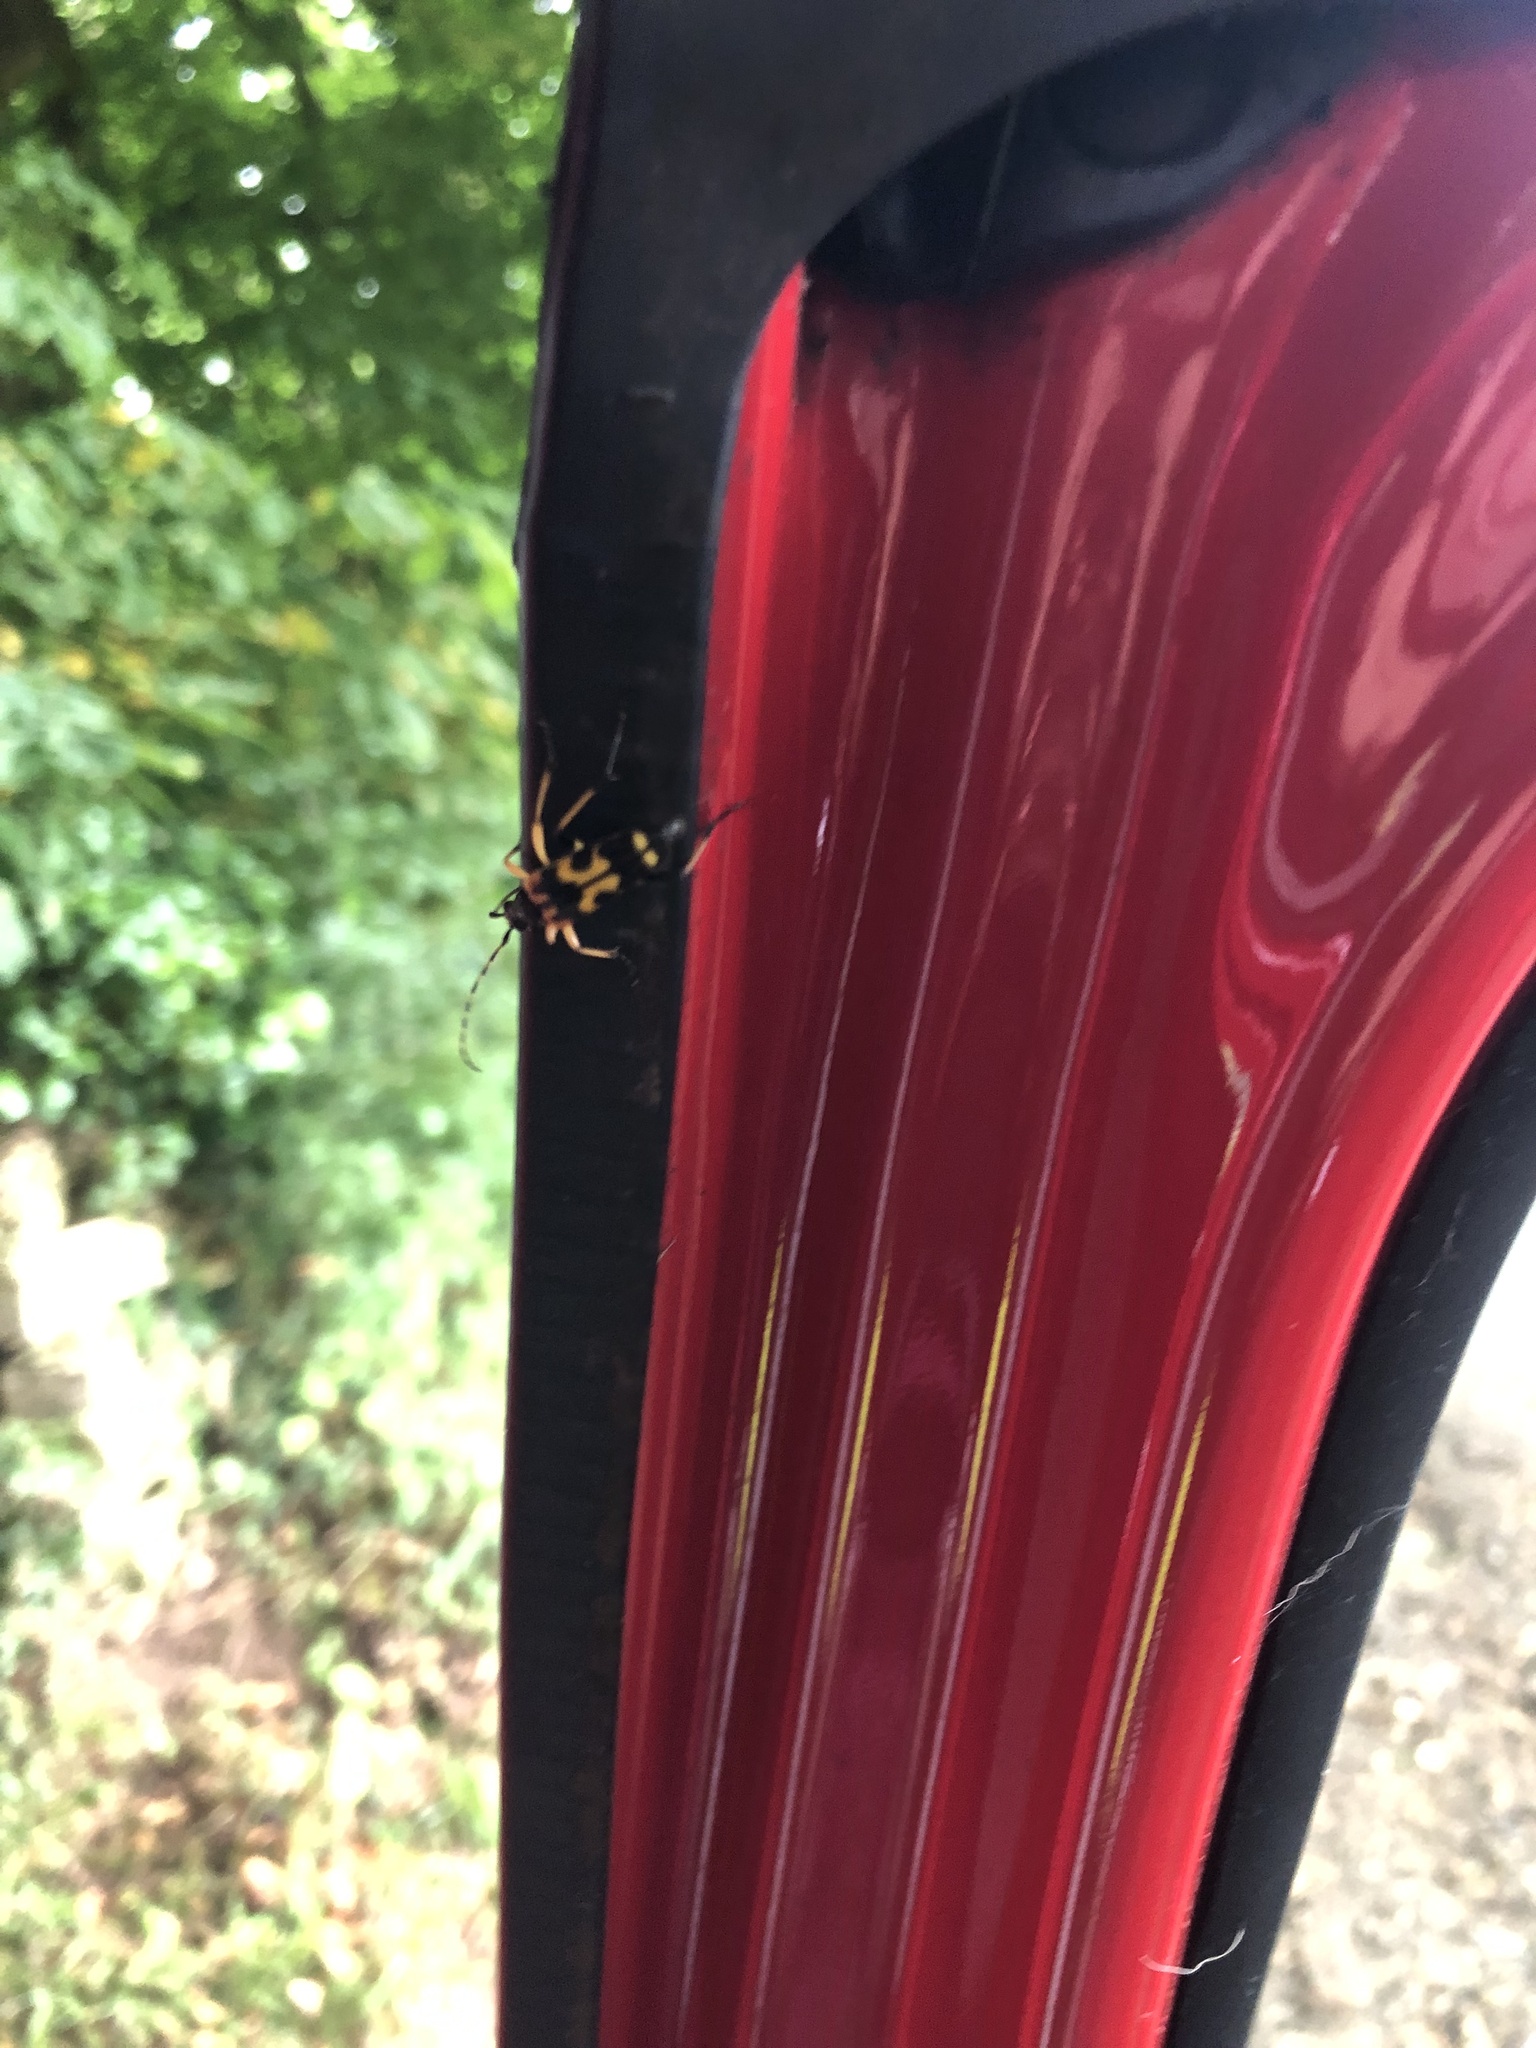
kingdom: Animalia
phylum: Arthropoda
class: Insecta
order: Coleoptera
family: Cerambycidae
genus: Rutpela
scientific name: Rutpela maculata
